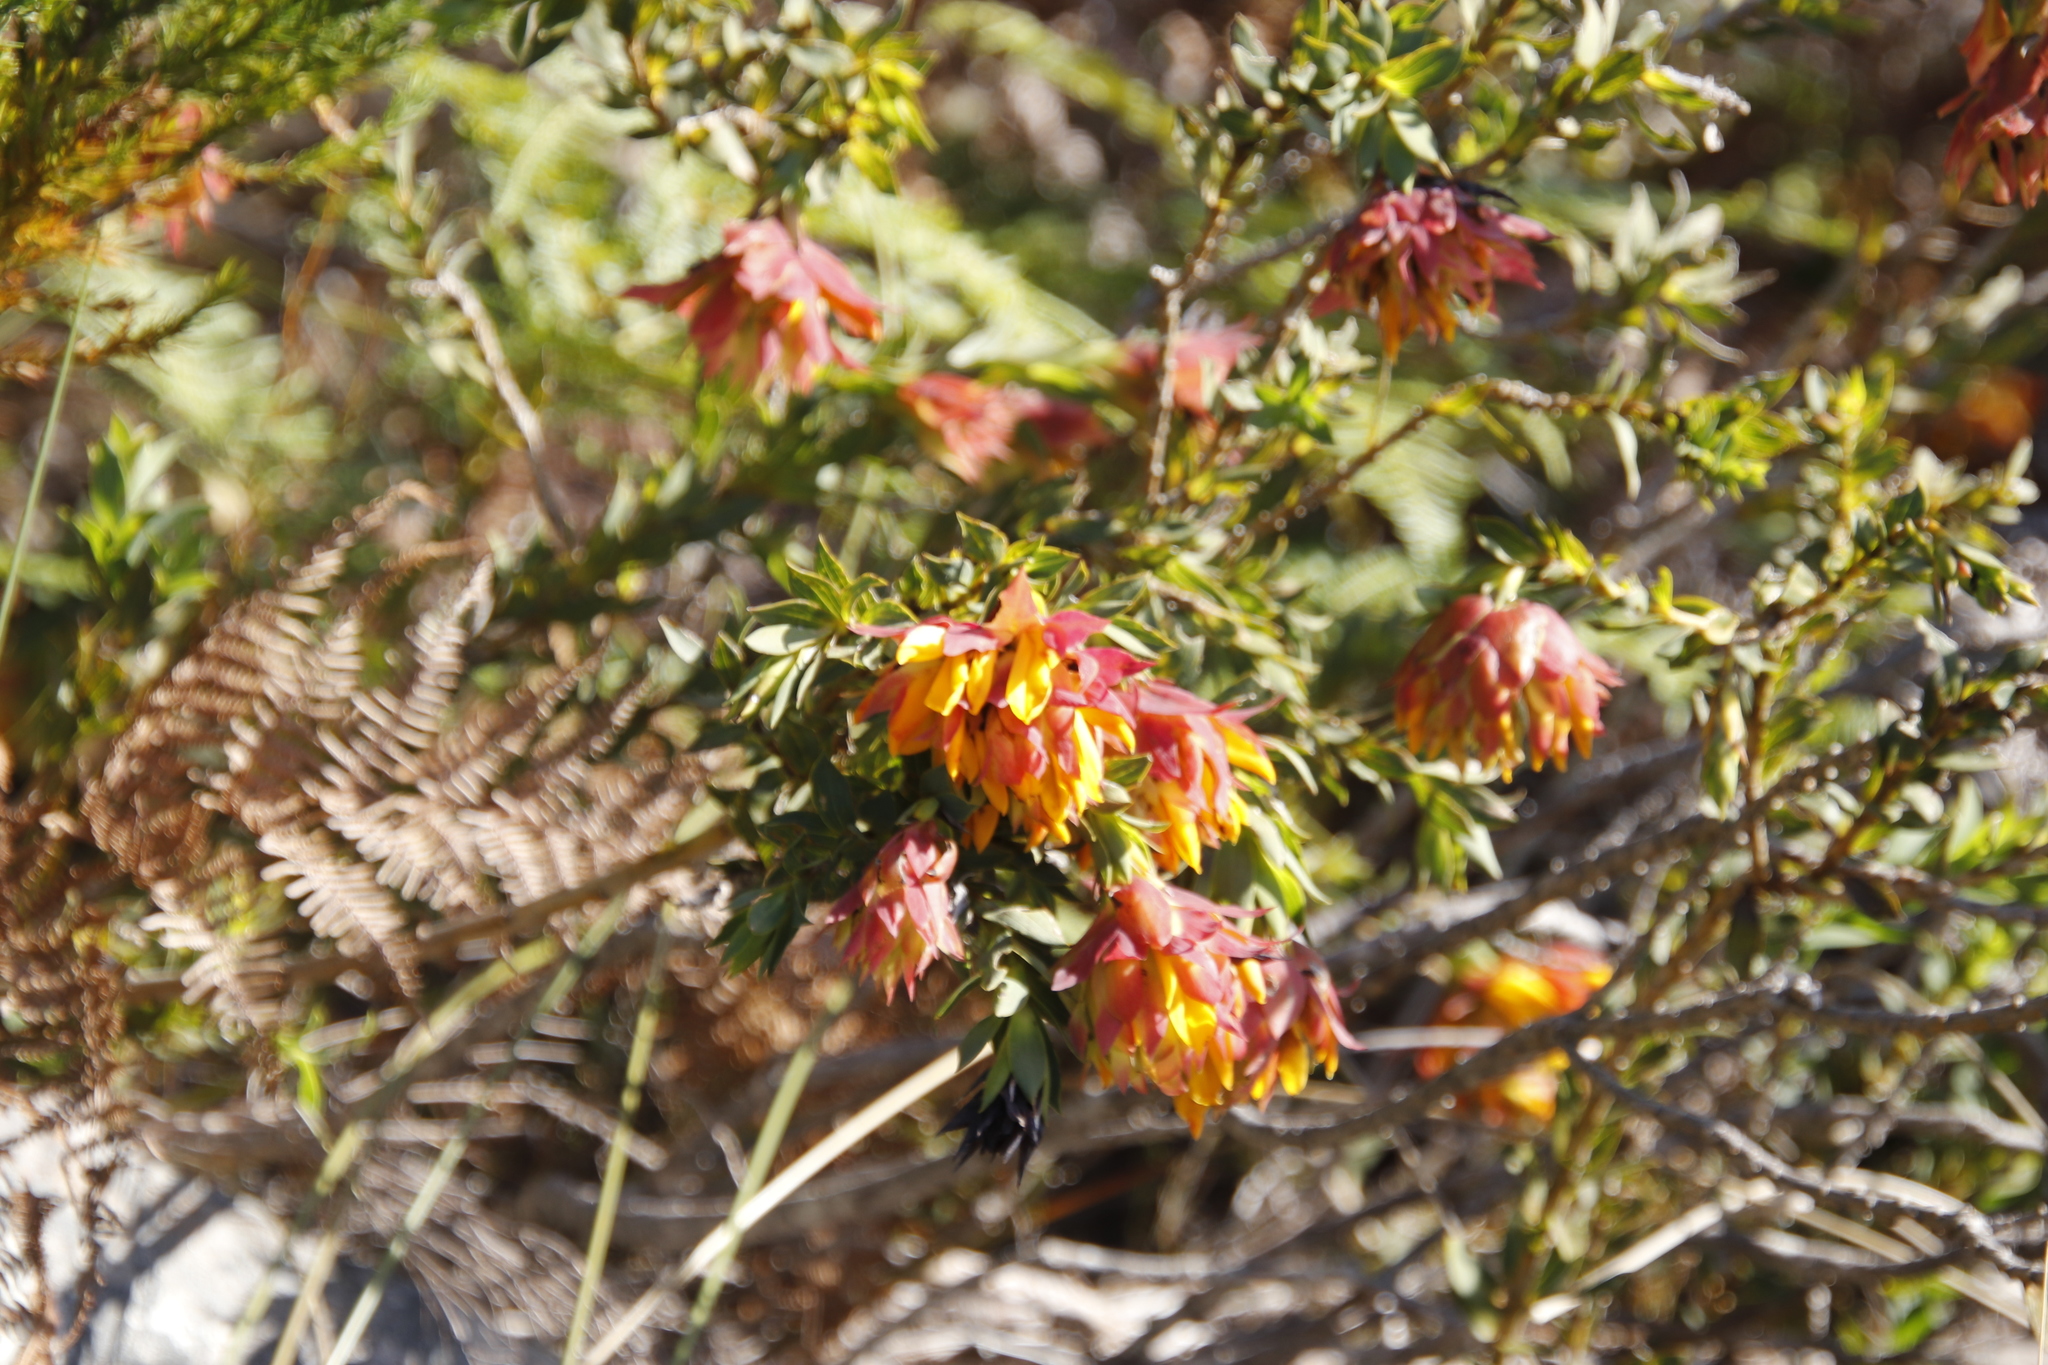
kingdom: Plantae
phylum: Tracheophyta
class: Magnoliopsida
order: Fabales
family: Fabaceae
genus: Liparia
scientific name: Liparia splendens
